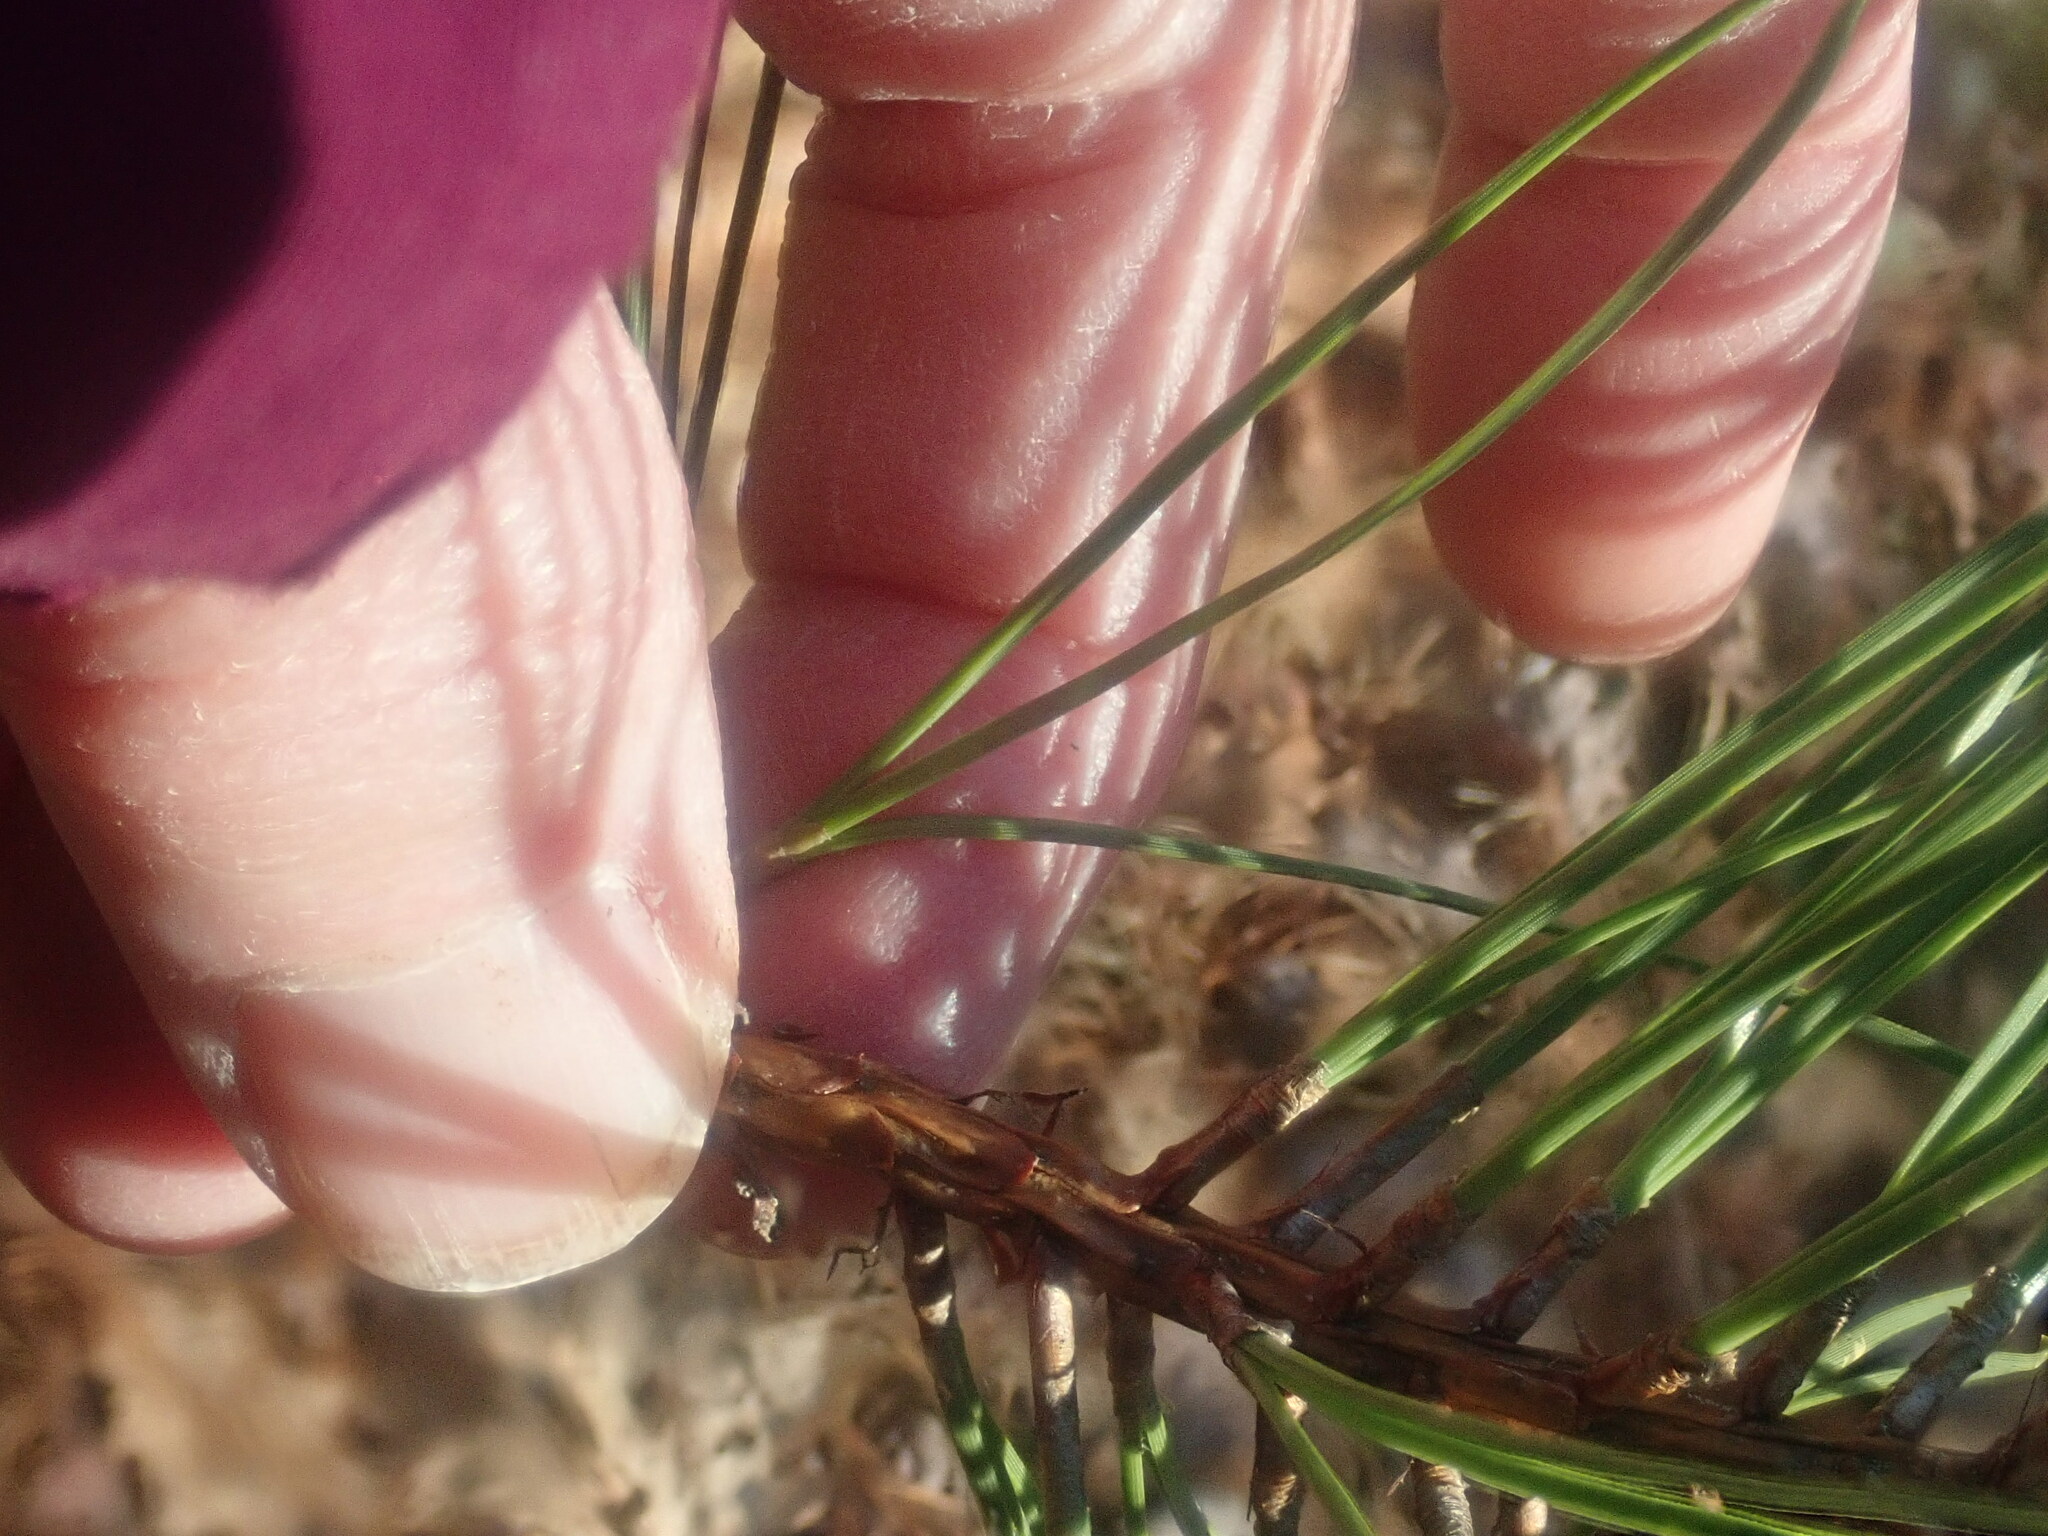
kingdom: Plantae
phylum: Tracheophyta
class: Pinopsida
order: Pinales
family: Pinaceae
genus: Pinus
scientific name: Pinus rigida
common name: Pitch pine
